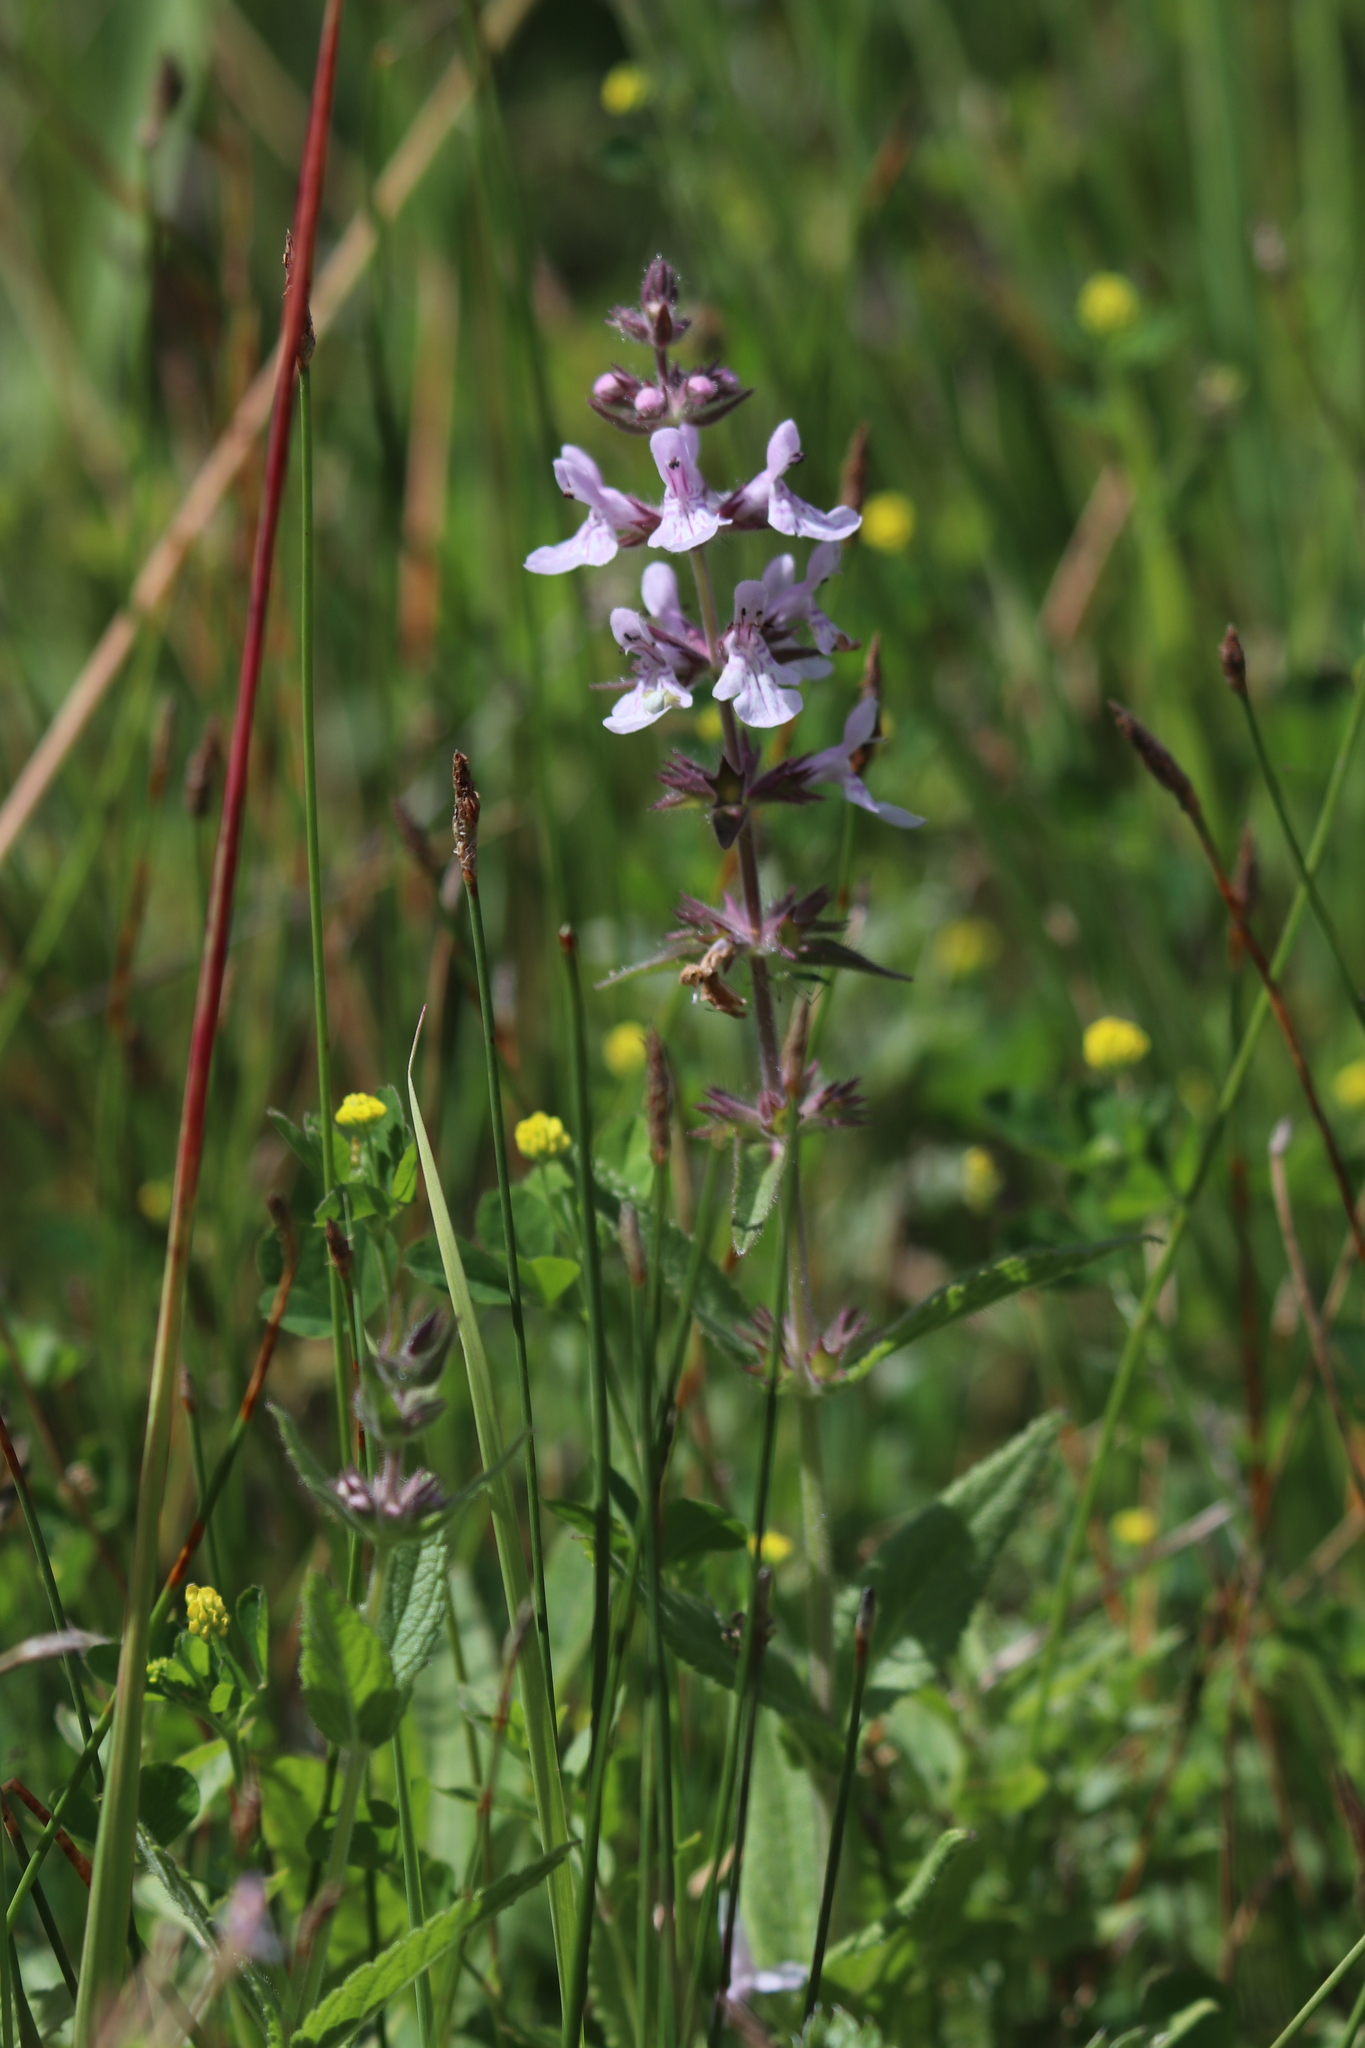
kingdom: Plantae
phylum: Tracheophyta
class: Magnoliopsida
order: Lamiales
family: Lamiaceae
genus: Stachys
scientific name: Stachys pilosa
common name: Hairy hedge-nettle
